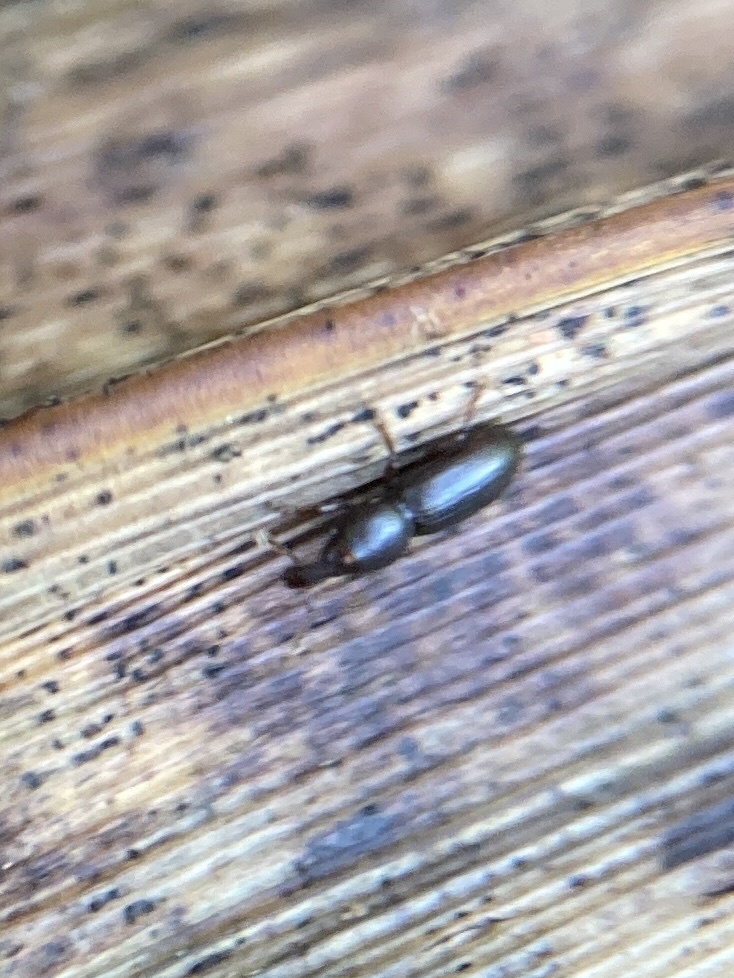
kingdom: Animalia
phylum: Arthropoda
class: Insecta
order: Coleoptera
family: Curculionidae
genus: Microtribus
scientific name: Microtribus huttoni
